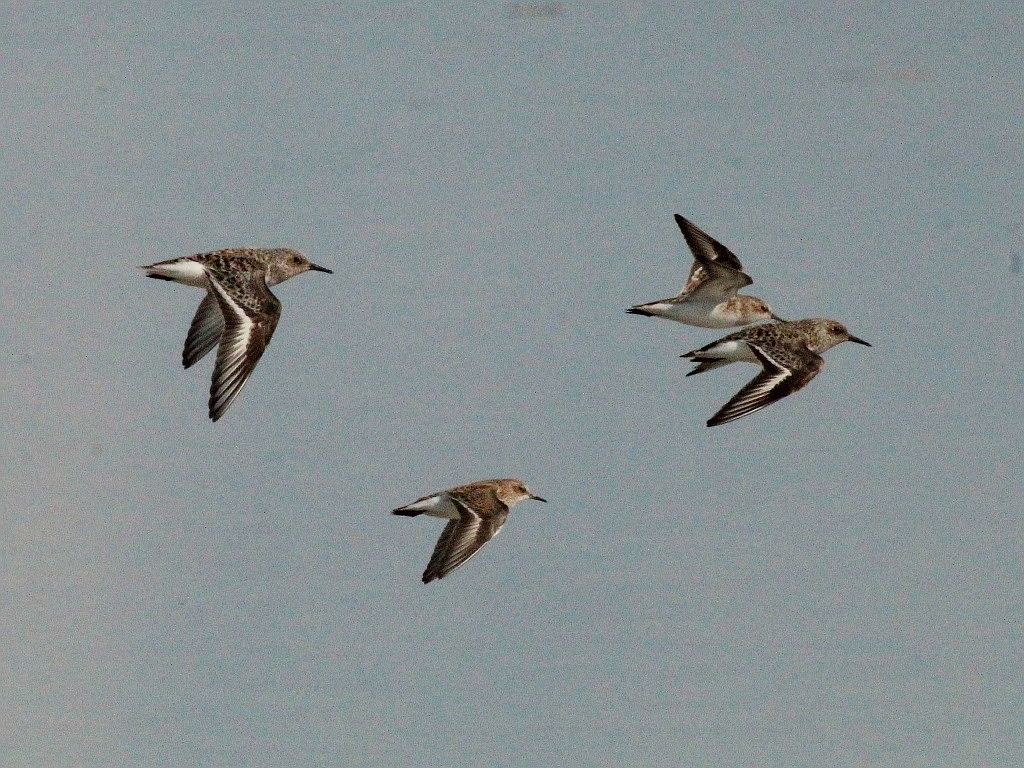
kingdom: Animalia
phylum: Chordata
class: Aves
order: Charadriiformes
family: Scolopacidae
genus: Calidris
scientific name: Calidris alba
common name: Sanderling
